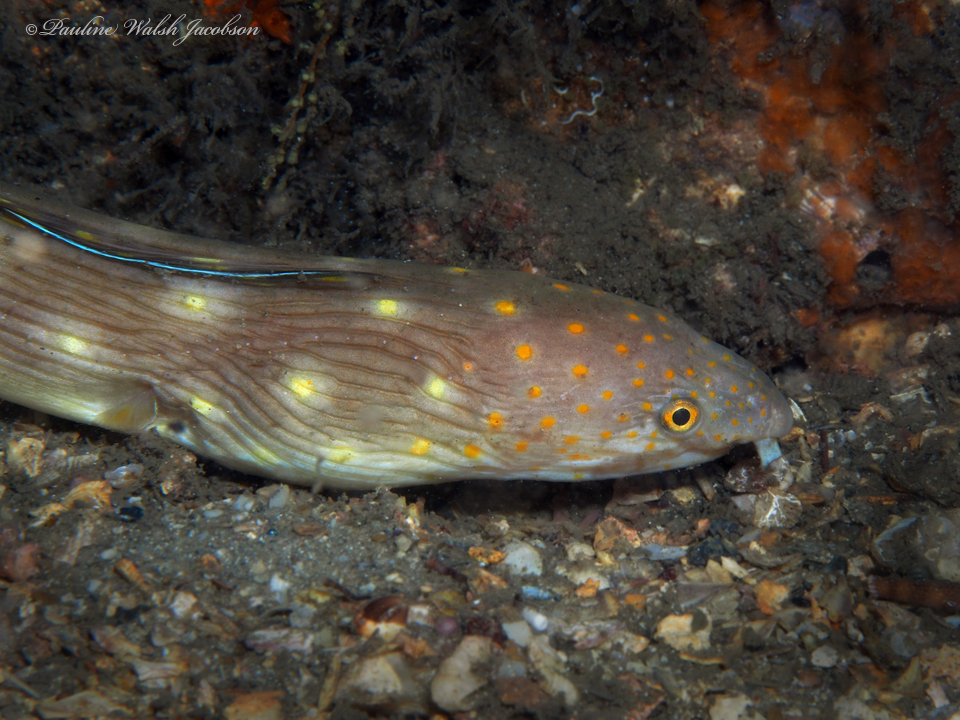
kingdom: Animalia
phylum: Chordata
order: Anguilliformes
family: Ophichthidae
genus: Myrichthys
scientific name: Myrichthys breviceps
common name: Sharptail eel
